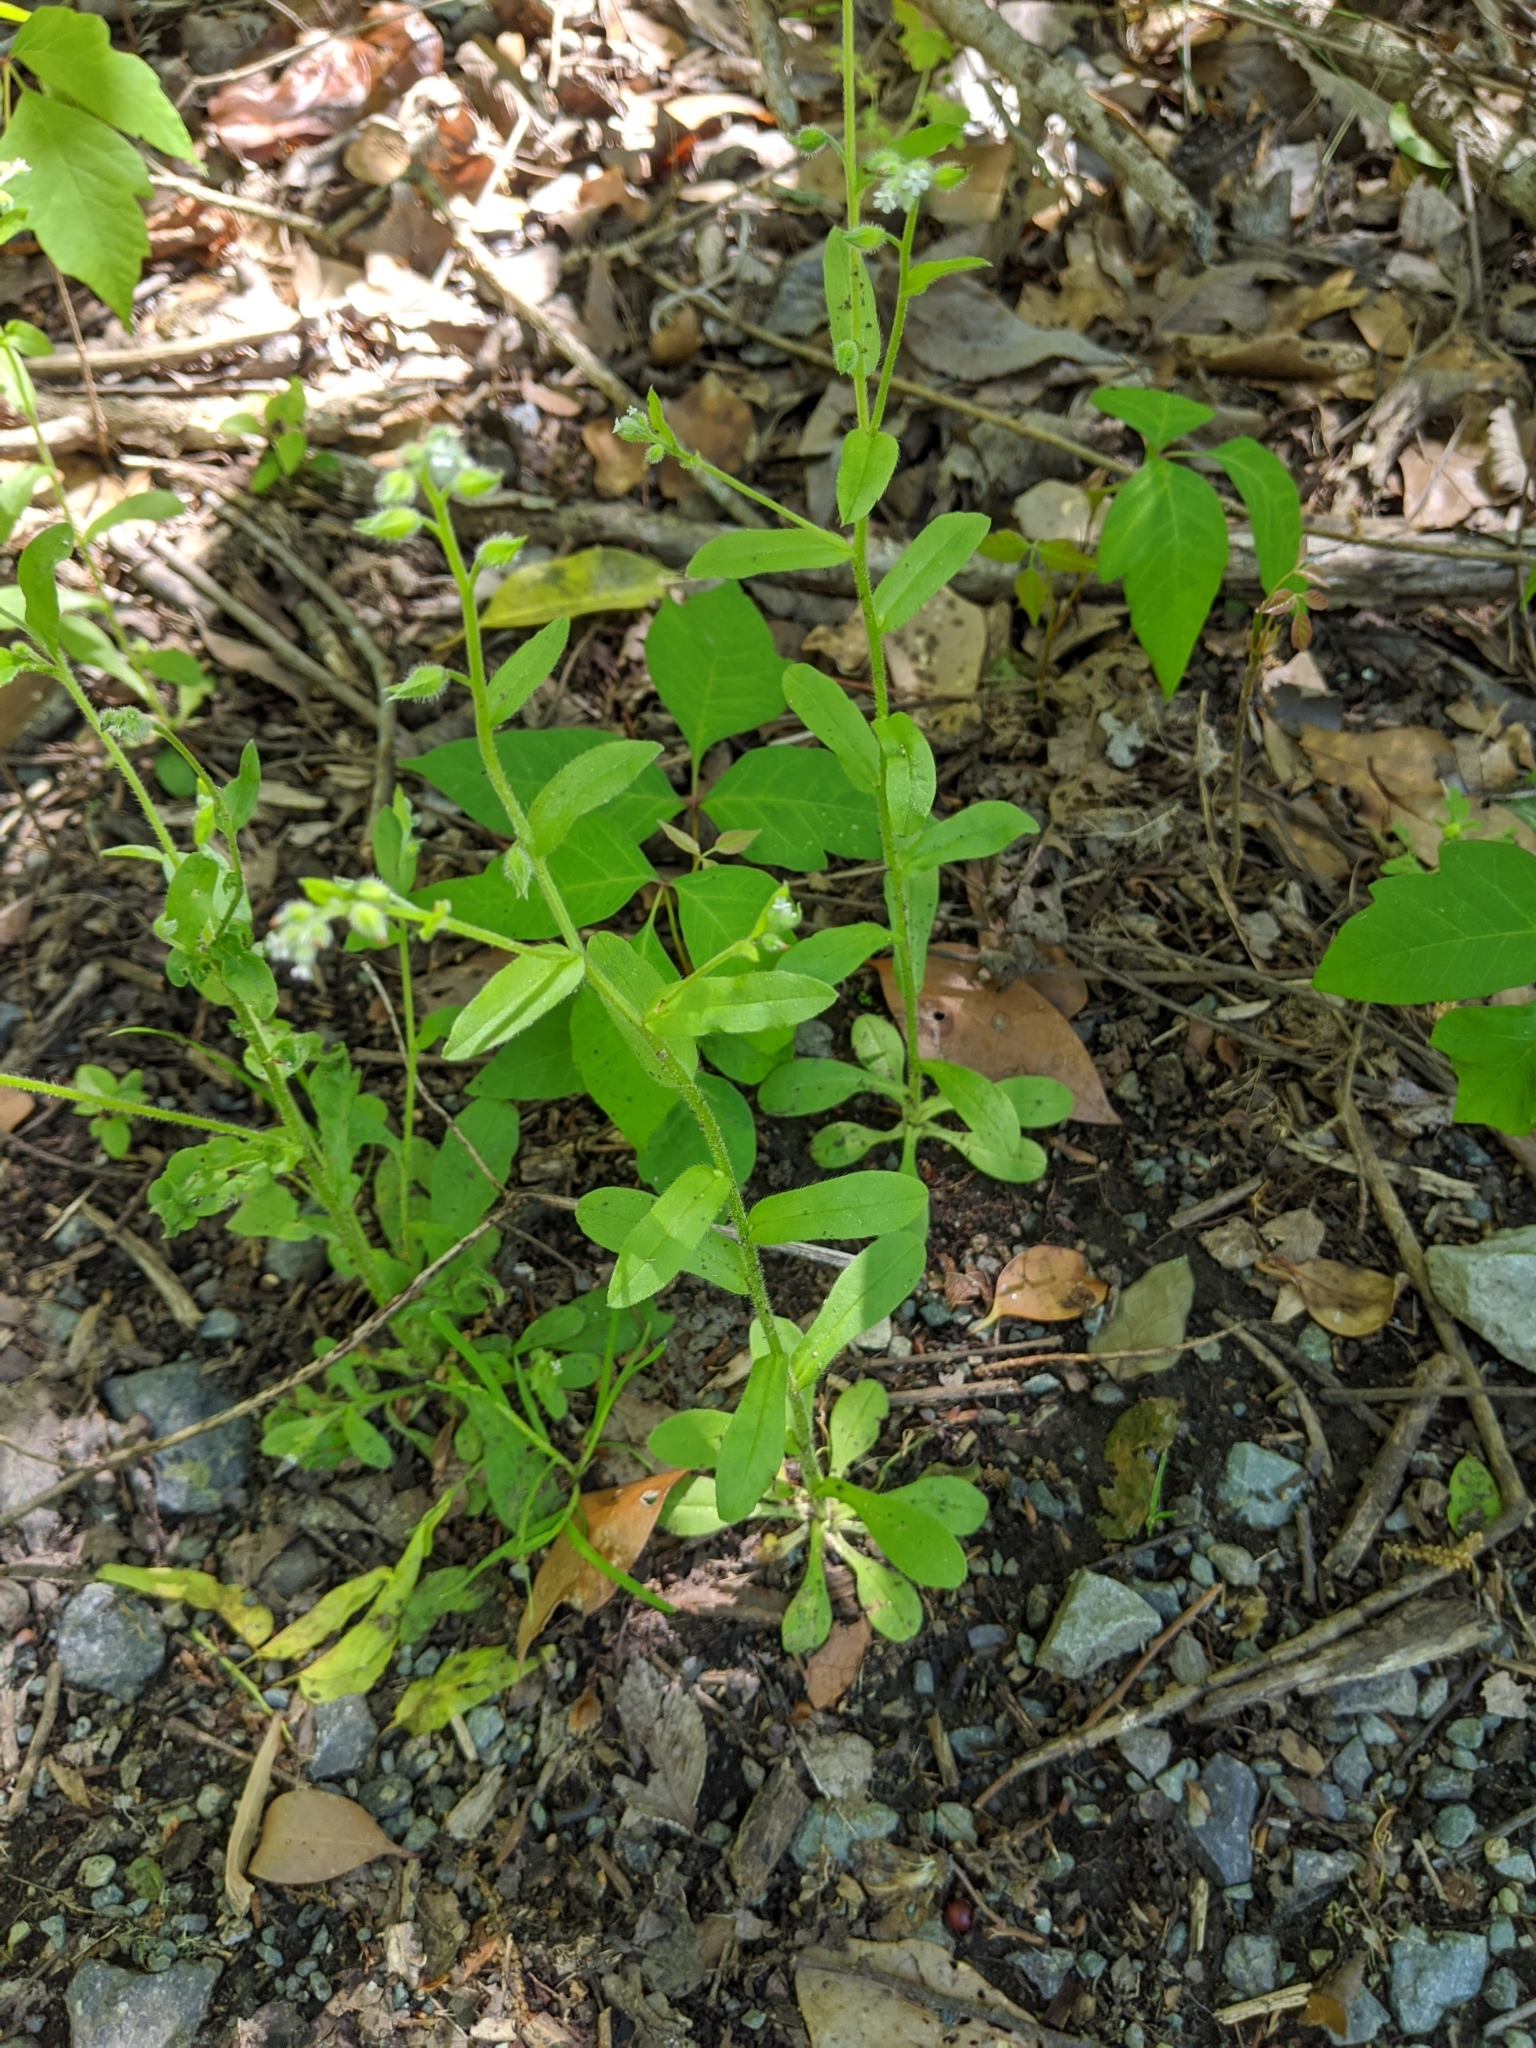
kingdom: Plantae
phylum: Tracheophyta
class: Magnoliopsida
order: Boraginales
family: Boraginaceae
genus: Myosotis
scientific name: Myosotis macrosperma
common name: Large-seed forget-me-not
